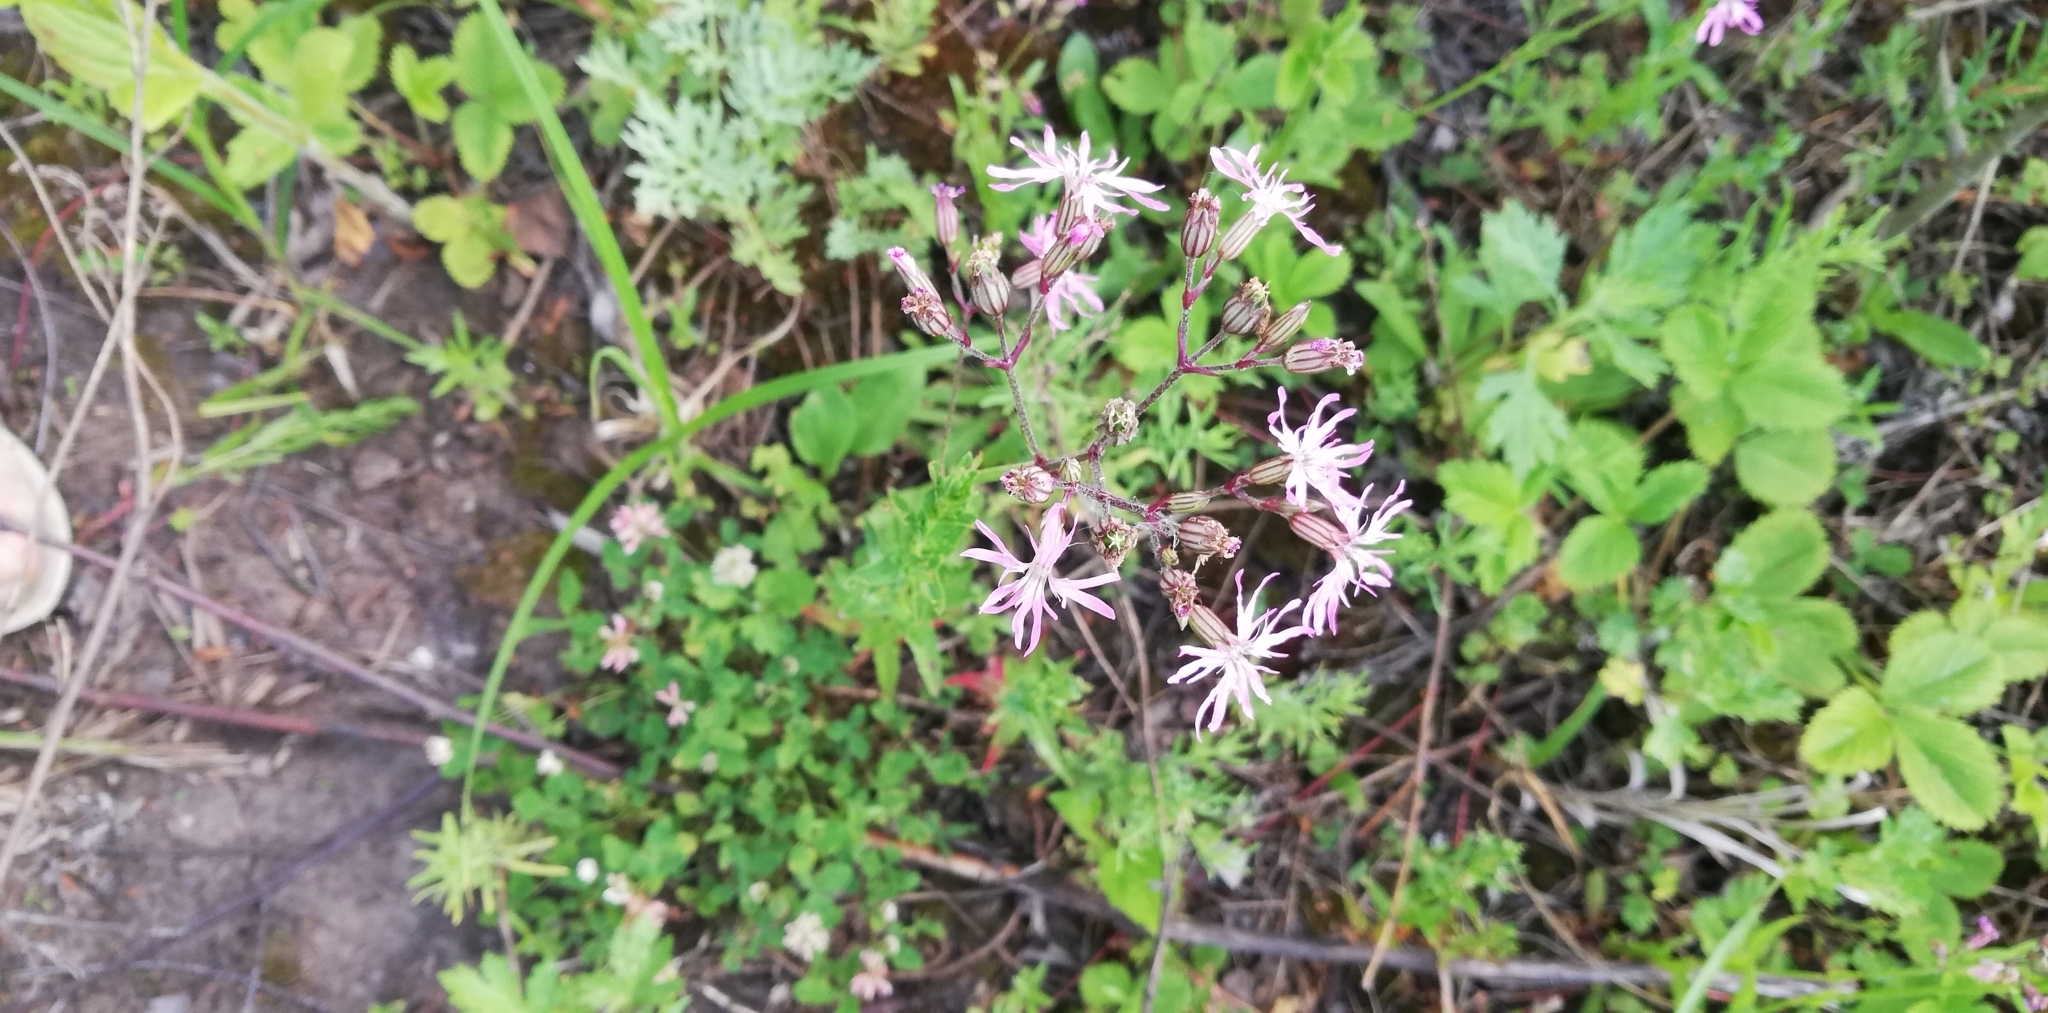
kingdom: Plantae
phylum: Tracheophyta
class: Magnoliopsida
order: Caryophyllales
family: Caryophyllaceae
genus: Silene
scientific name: Silene flos-cuculi
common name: Ragged-robin
